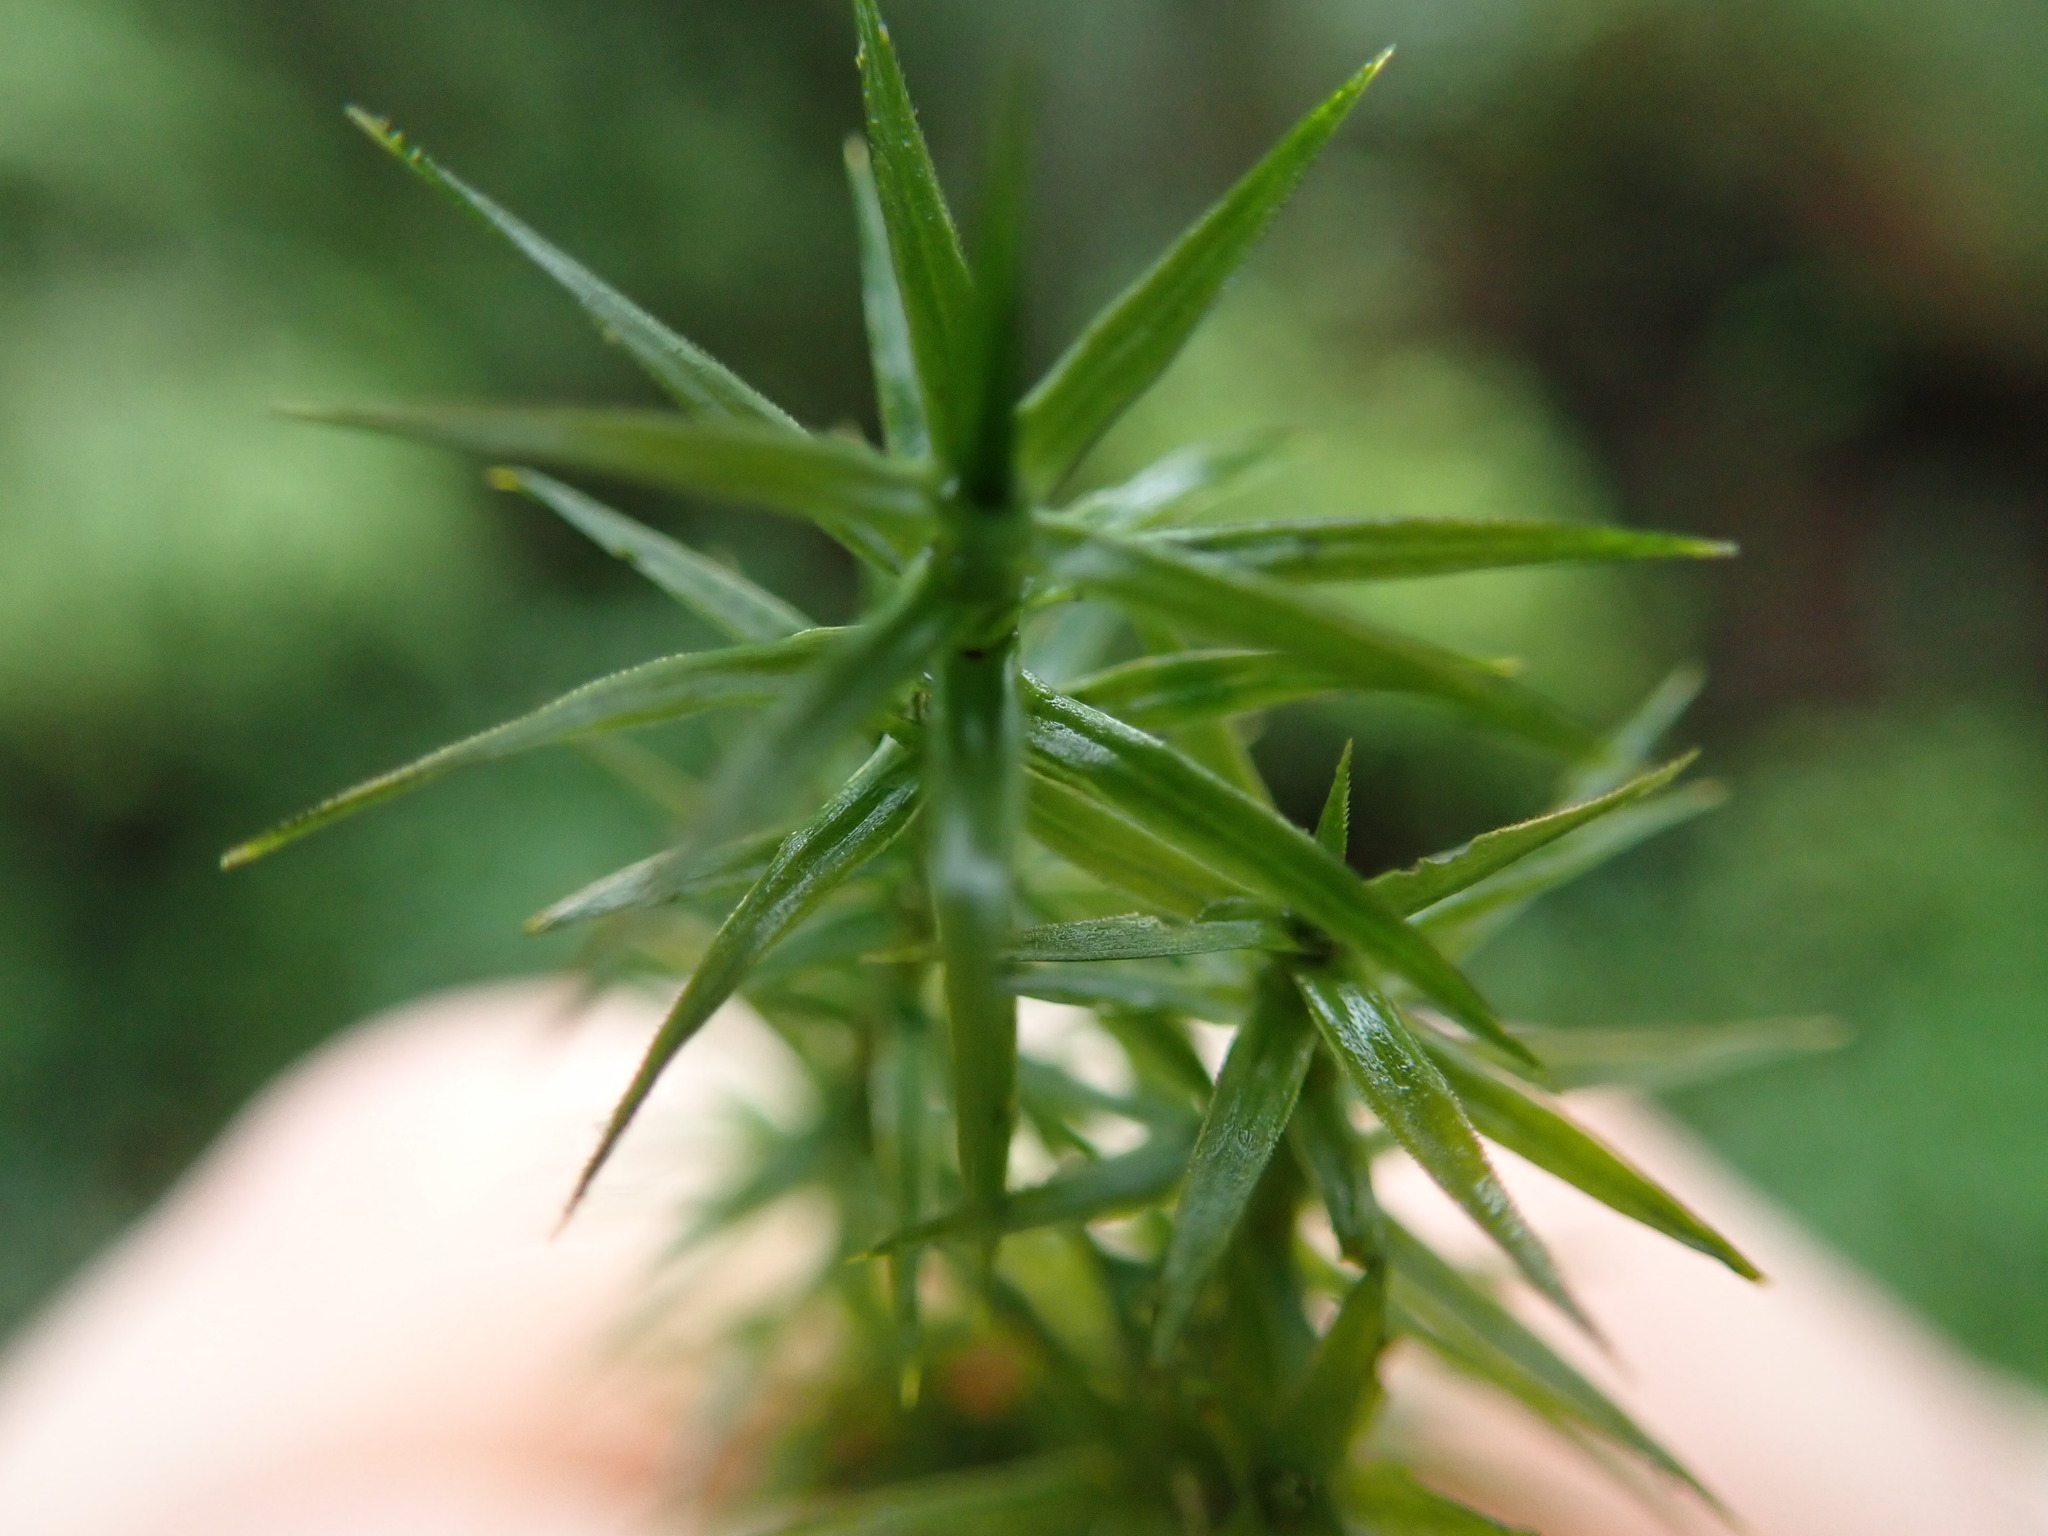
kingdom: Plantae
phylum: Bryophyta
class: Polytrichopsida
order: Polytrichales
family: Polytrichaceae
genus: Polytrichum
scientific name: Polytrichum formosum
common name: Bank haircap moss
